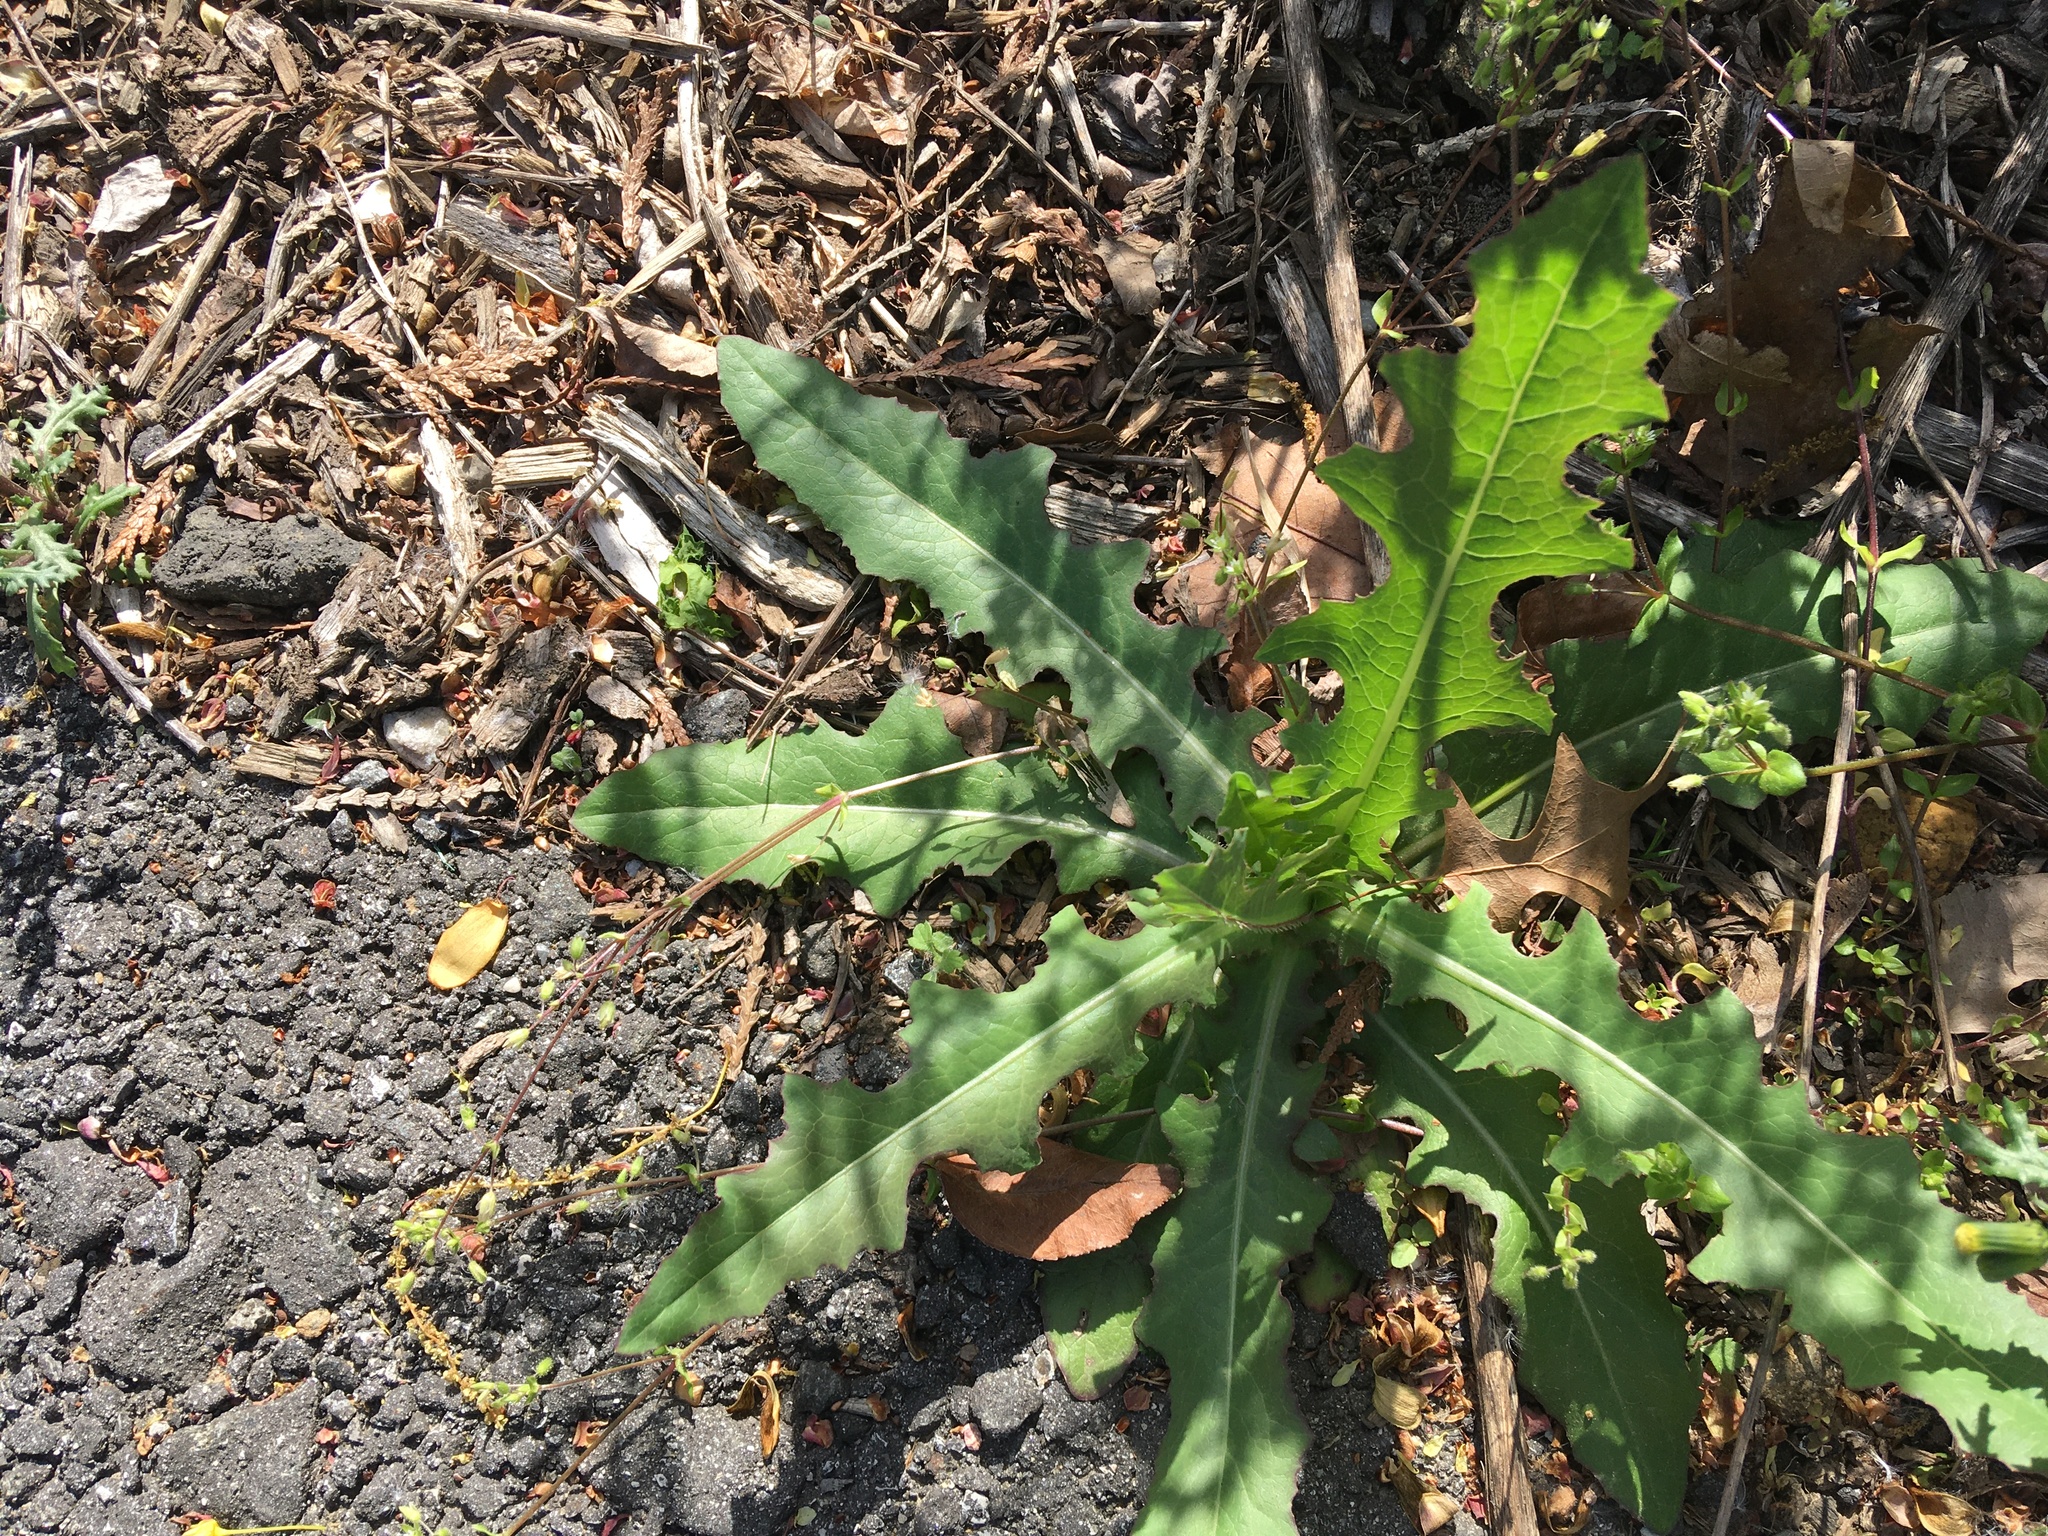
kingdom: Plantae
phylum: Tracheophyta
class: Magnoliopsida
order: Asterales
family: Asteraceae
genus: Lactuca
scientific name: Lactuca serriola
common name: Prickly lettuce
